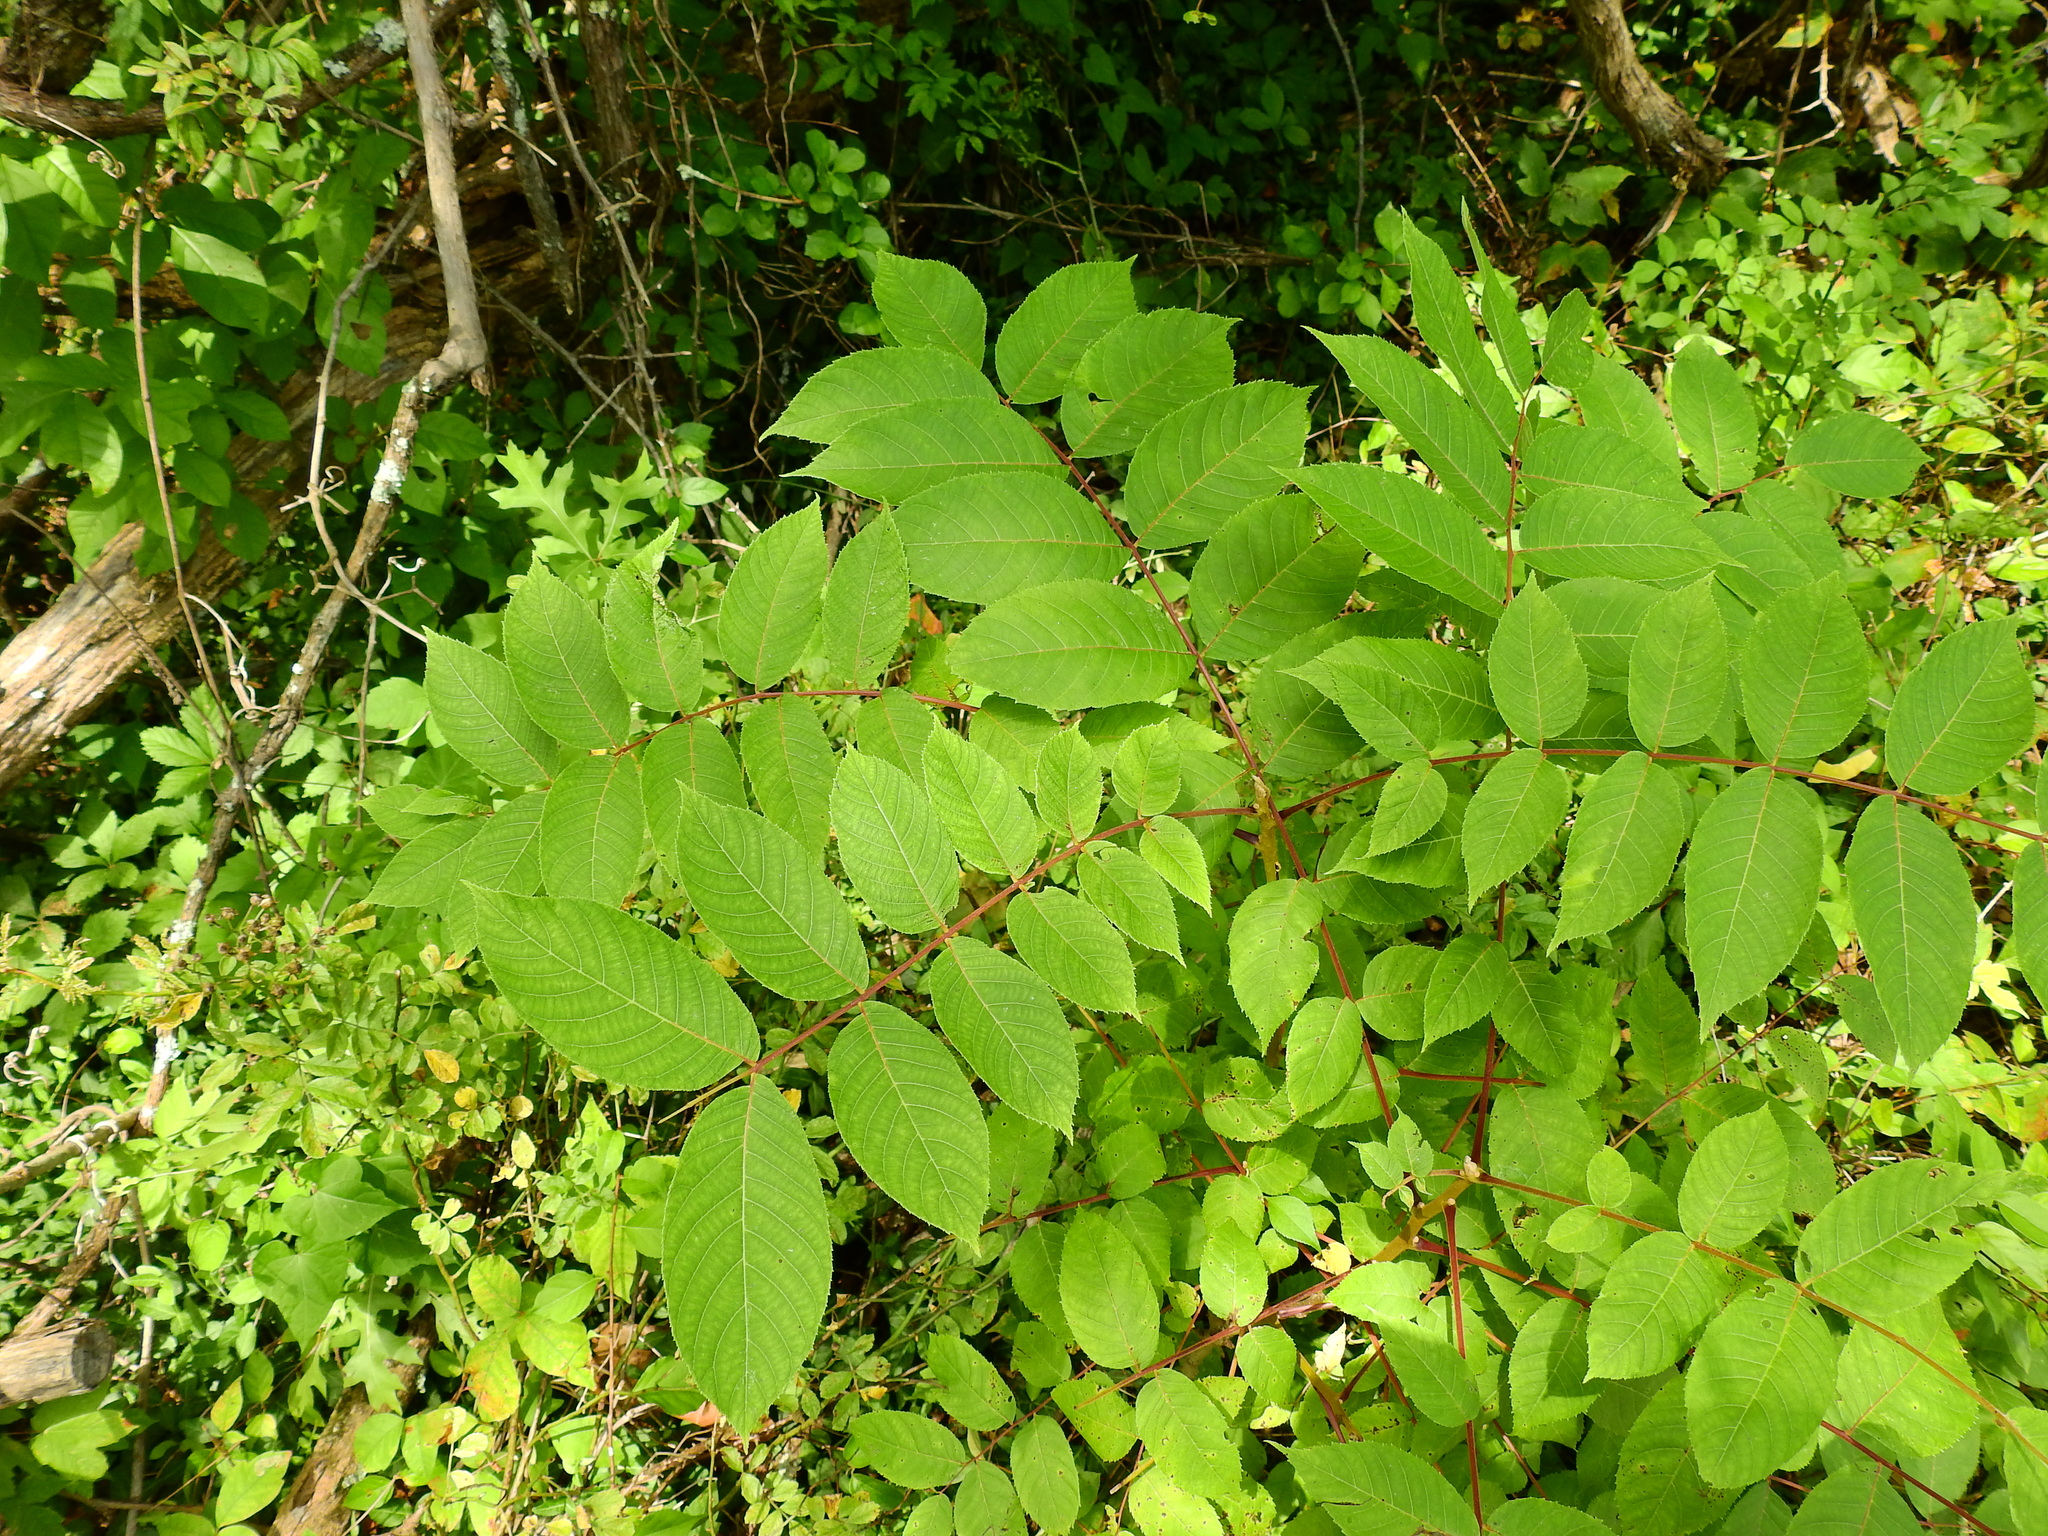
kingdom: Plantae
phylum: Tracheophyta
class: Magnoliopsida
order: Fagales
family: Juglandaceae
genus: Juglans
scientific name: Juglans cinerea
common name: Butternut
